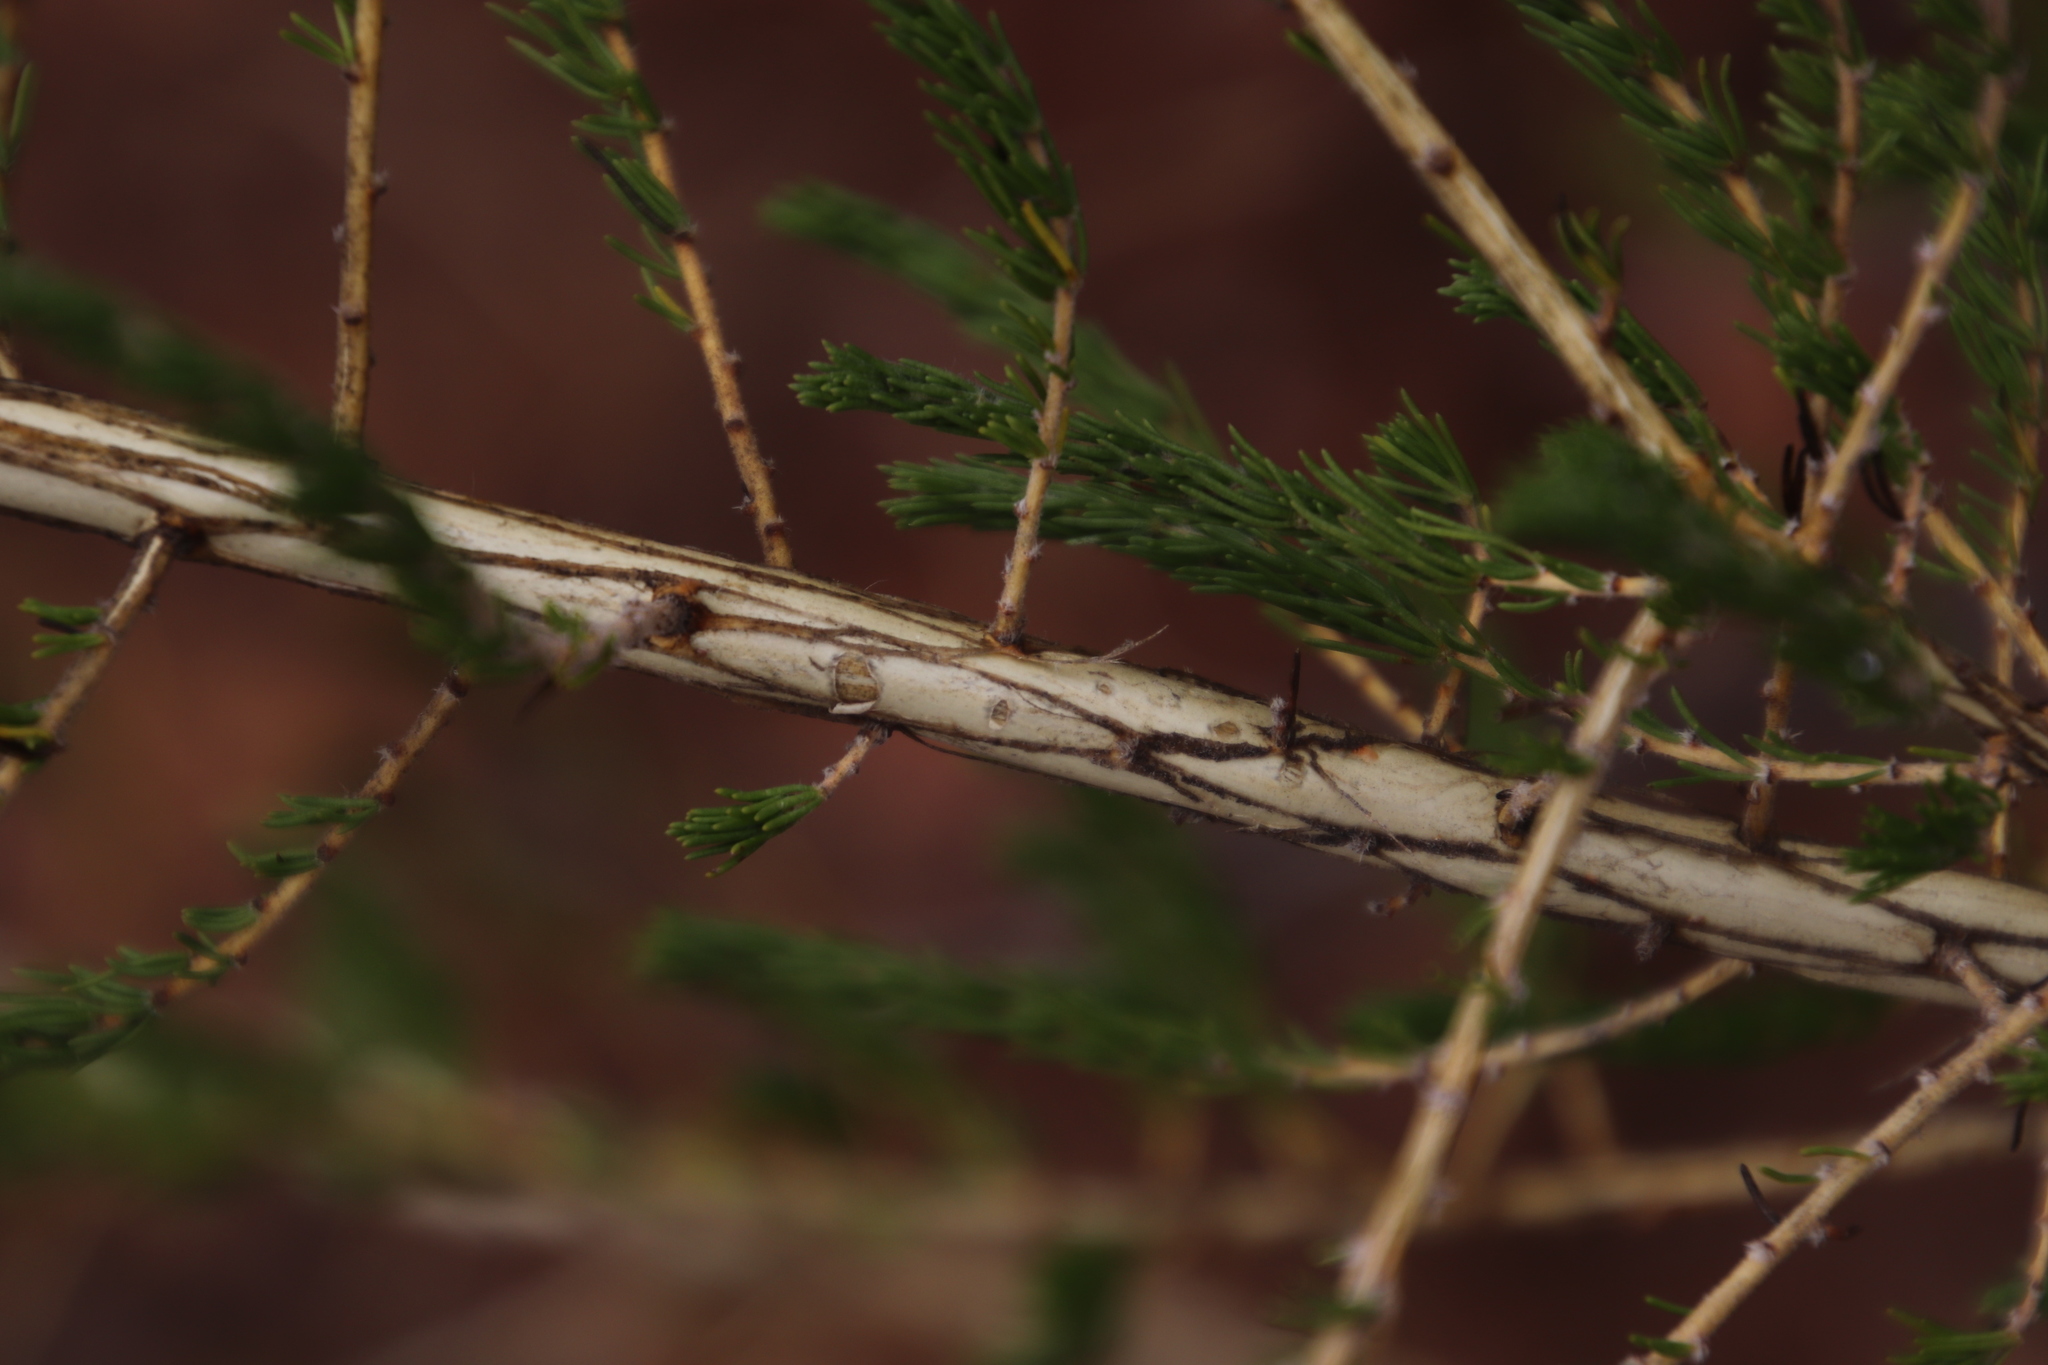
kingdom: Plantae
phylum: Tracheophyta
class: Magnoliopsida
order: Fabales
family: Fabaceae
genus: Aspalathus
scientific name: Aspalathus barbigera
